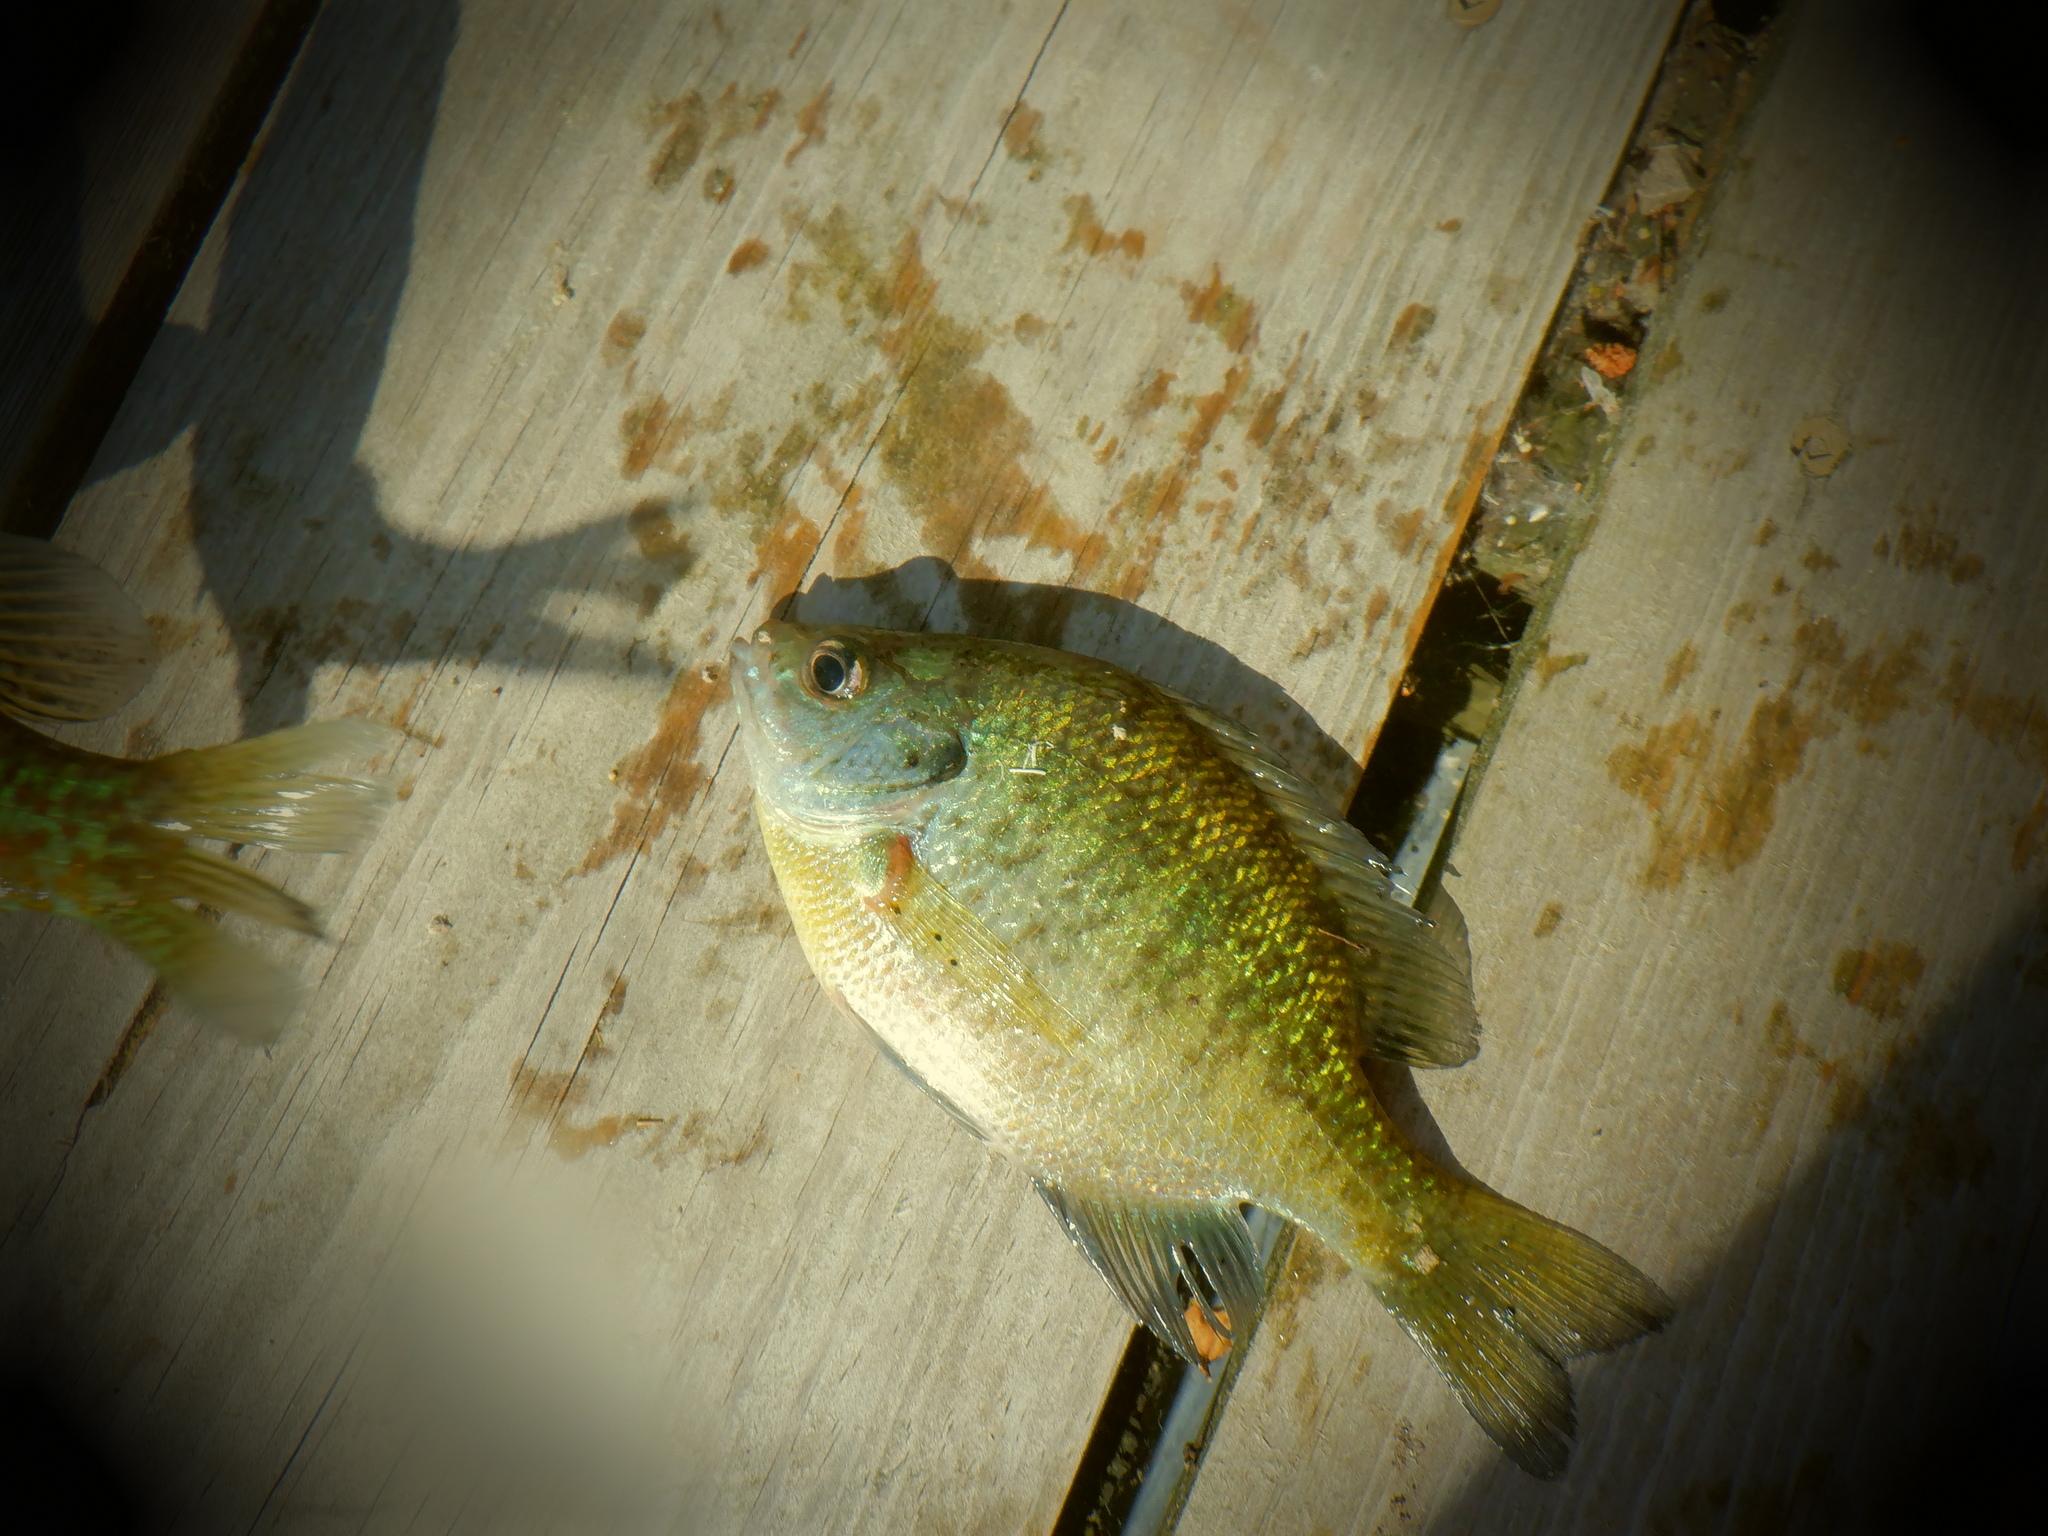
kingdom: Animalia
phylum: Chordata
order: Perciformes
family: Centrarchidae
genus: Lepomis
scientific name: Lepomis macrochirus
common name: Bluegill
